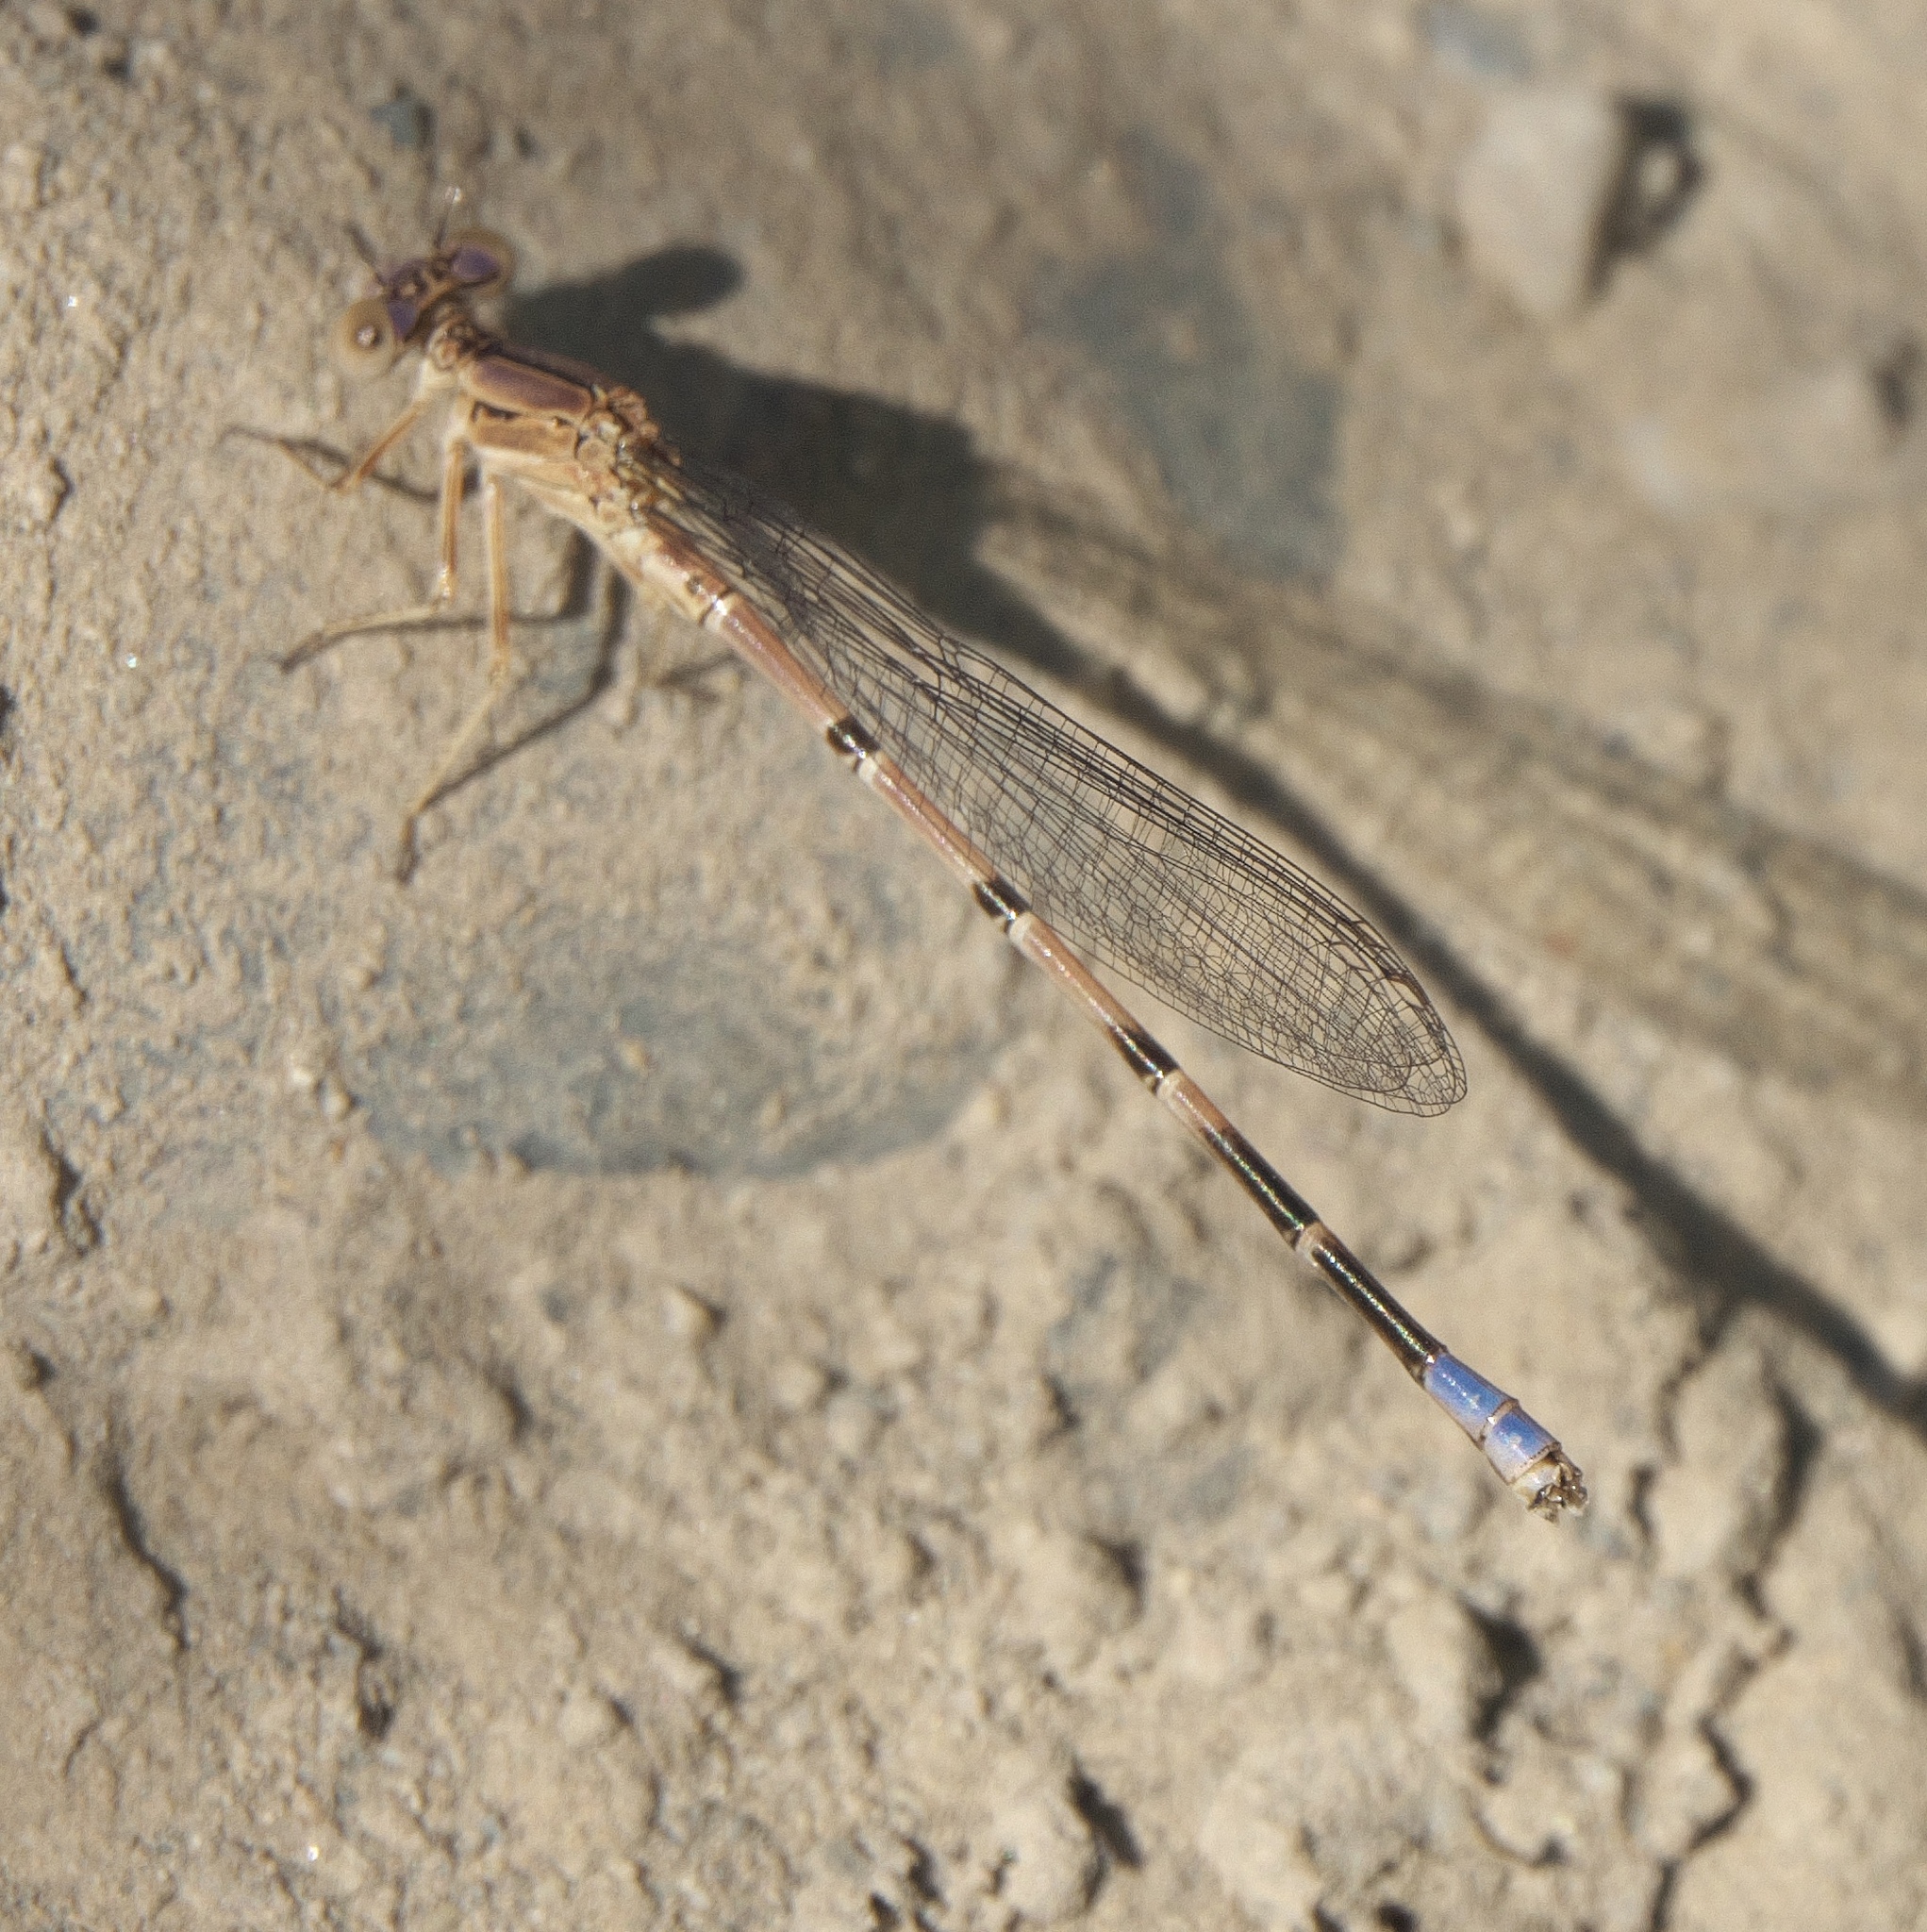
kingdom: Animalia
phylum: Arthropoda
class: Insecta
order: Odonata
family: Coenagrionidae
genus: Argia
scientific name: Argia emma
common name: Emma's dancer
